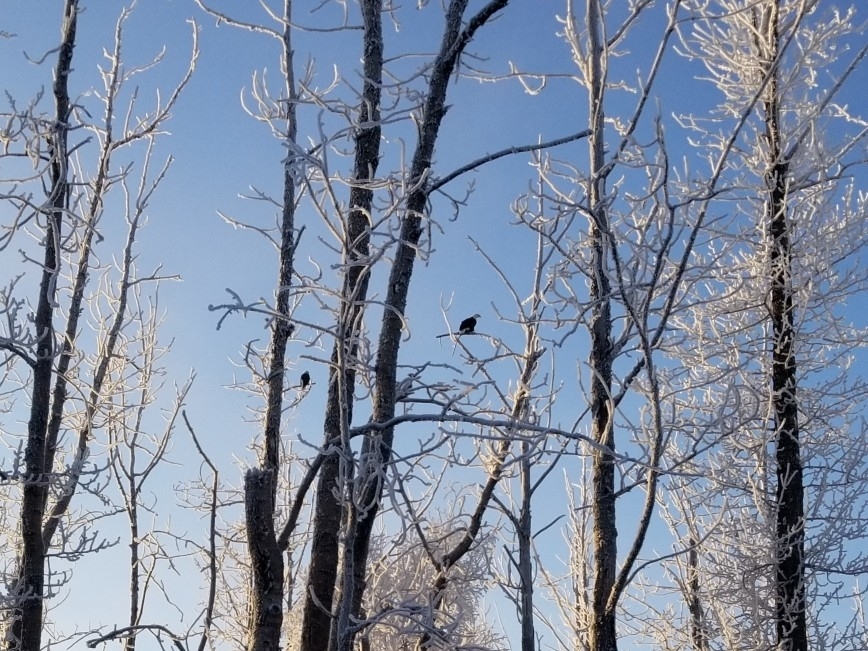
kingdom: Animalia
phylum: Chordata
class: Aves
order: Accipitriformes
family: Accipitridae
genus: Haliaeetus
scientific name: Haliaeetus leucocephalus
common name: Bald eagle
